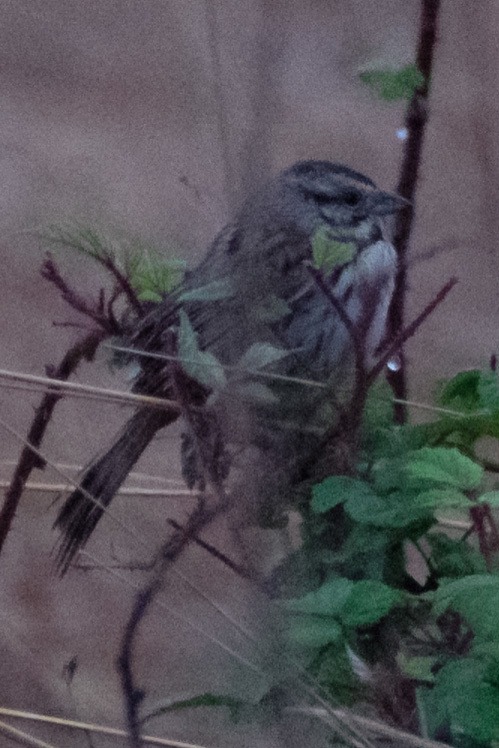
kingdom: Animalia
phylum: Chordata
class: Aves
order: Passeriformes
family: Passerellidae
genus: Melospiza
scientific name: Melospiza melodia
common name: Song sparrow
